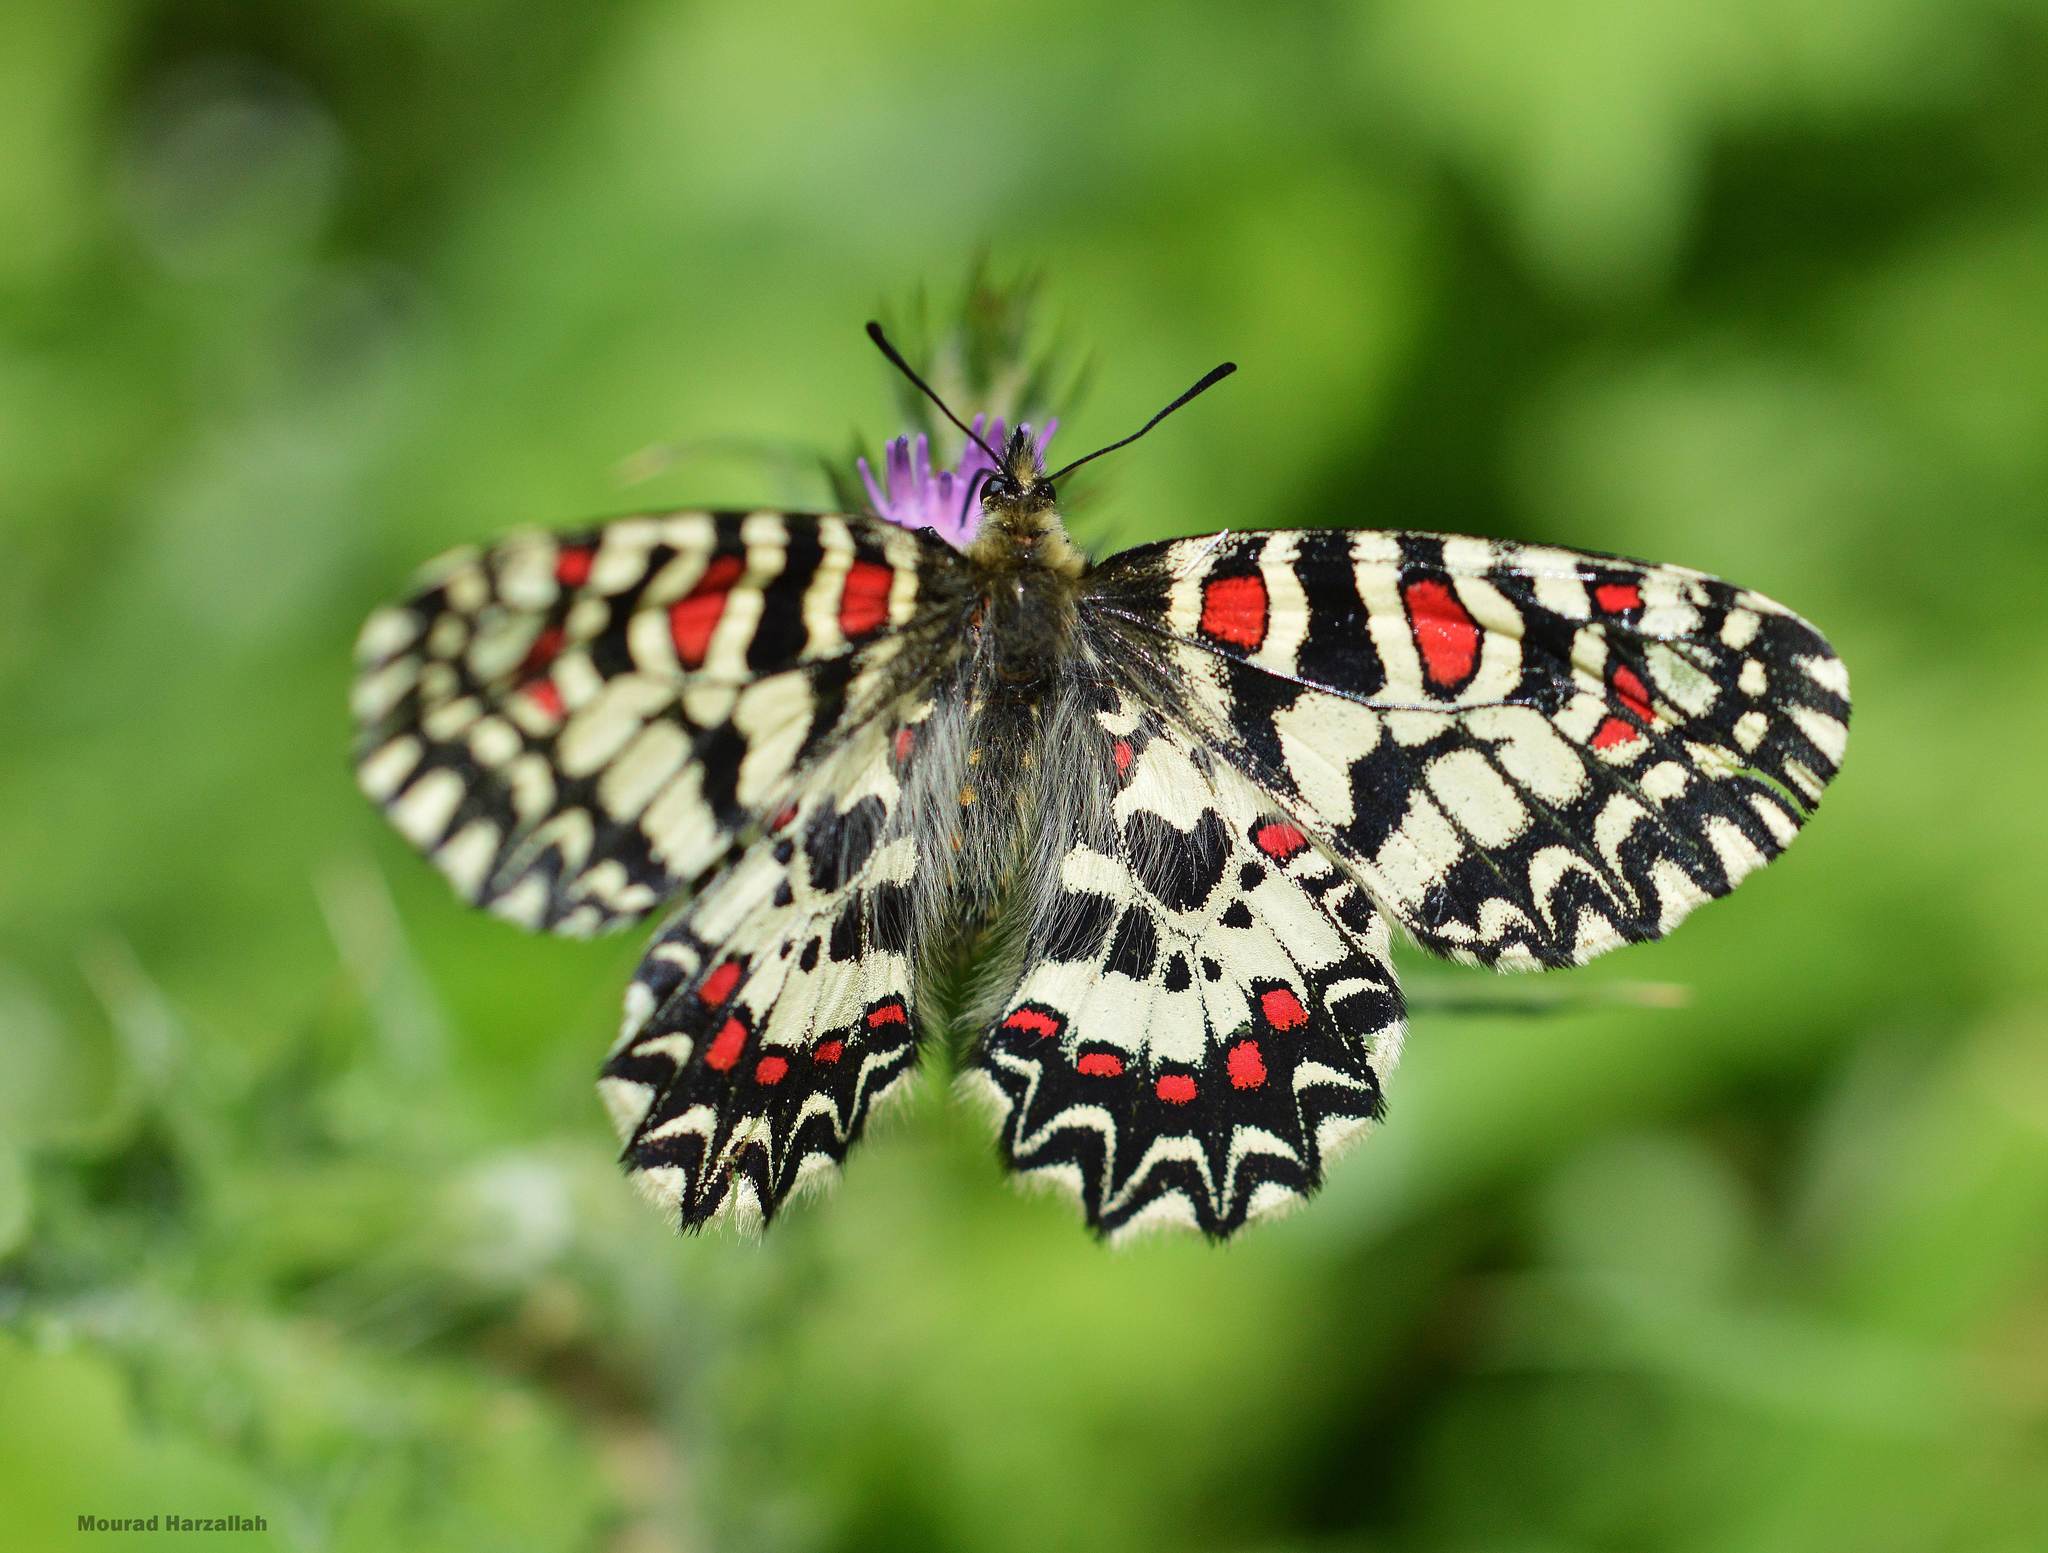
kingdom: Animalia
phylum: Arthropoda
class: Insecta
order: Lepidoptera
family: Papilionidae
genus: Zerynthia
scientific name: Zerynthia rumina
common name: Spanish festoon
